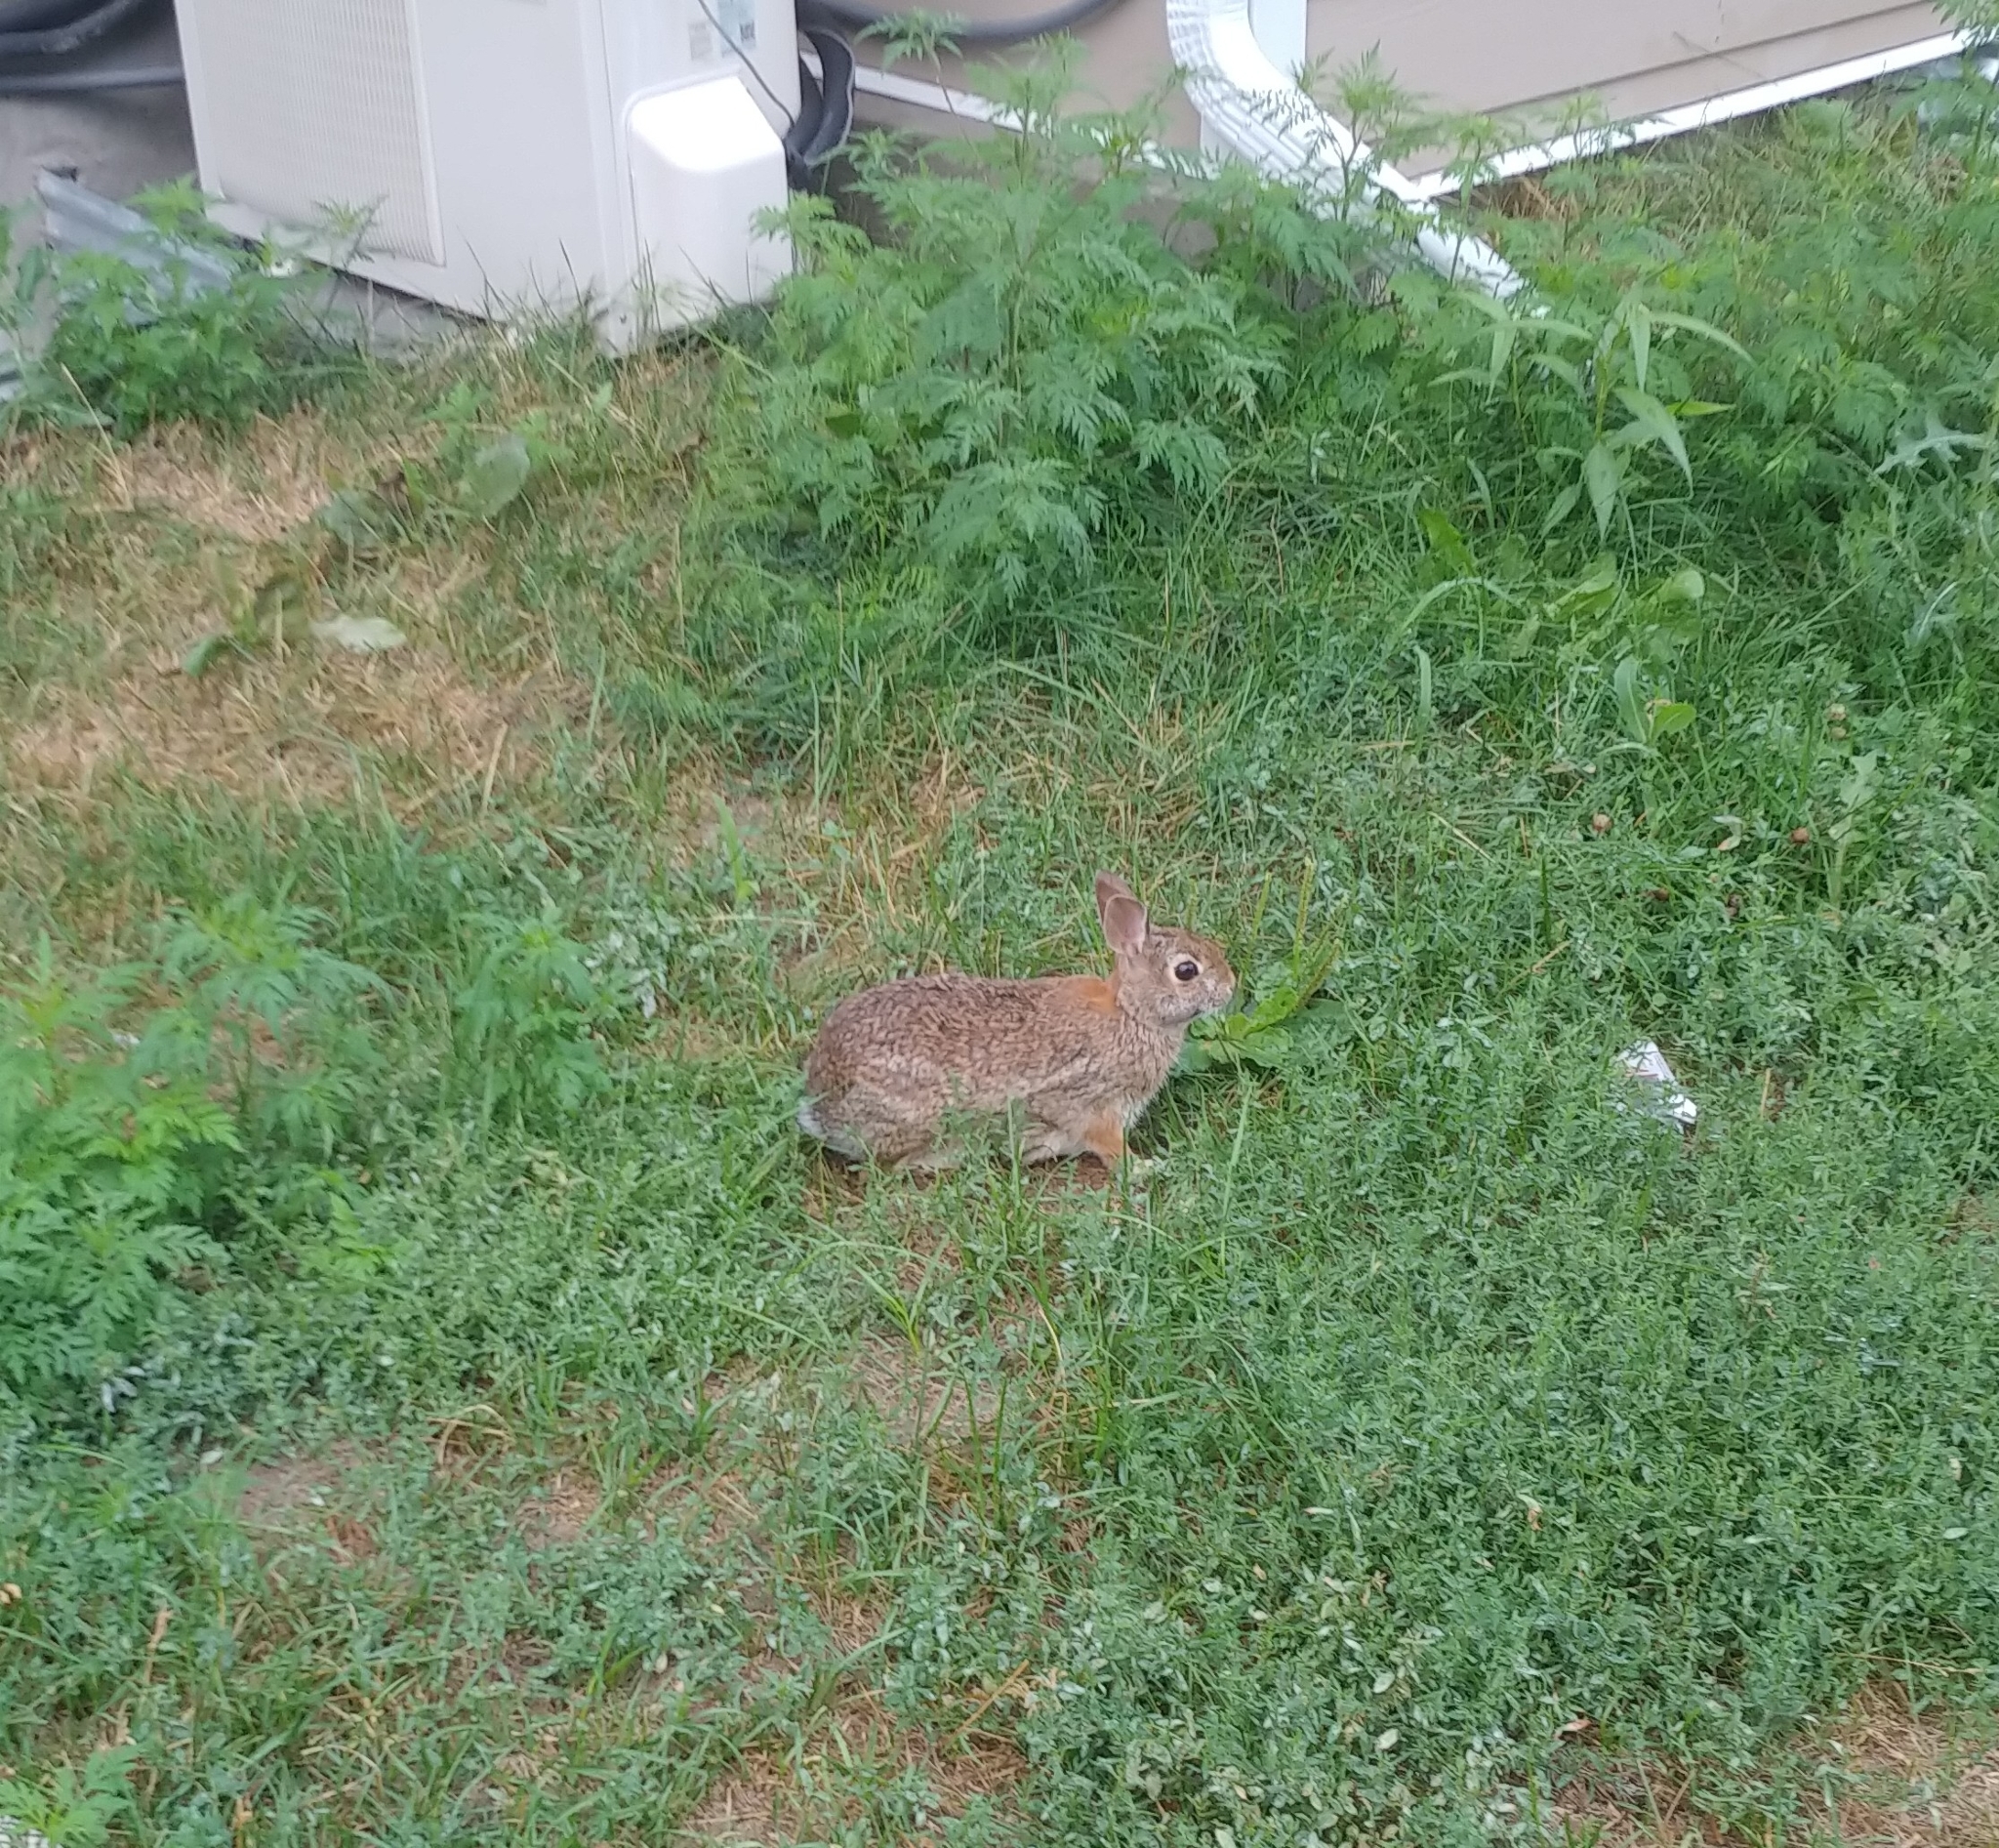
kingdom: Animalia
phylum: Chordata
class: Mammalia
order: Lagomorpha
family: Leporidae
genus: Sylvilagus
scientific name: Sylvilagus floridanus
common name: Eastern cottontail
